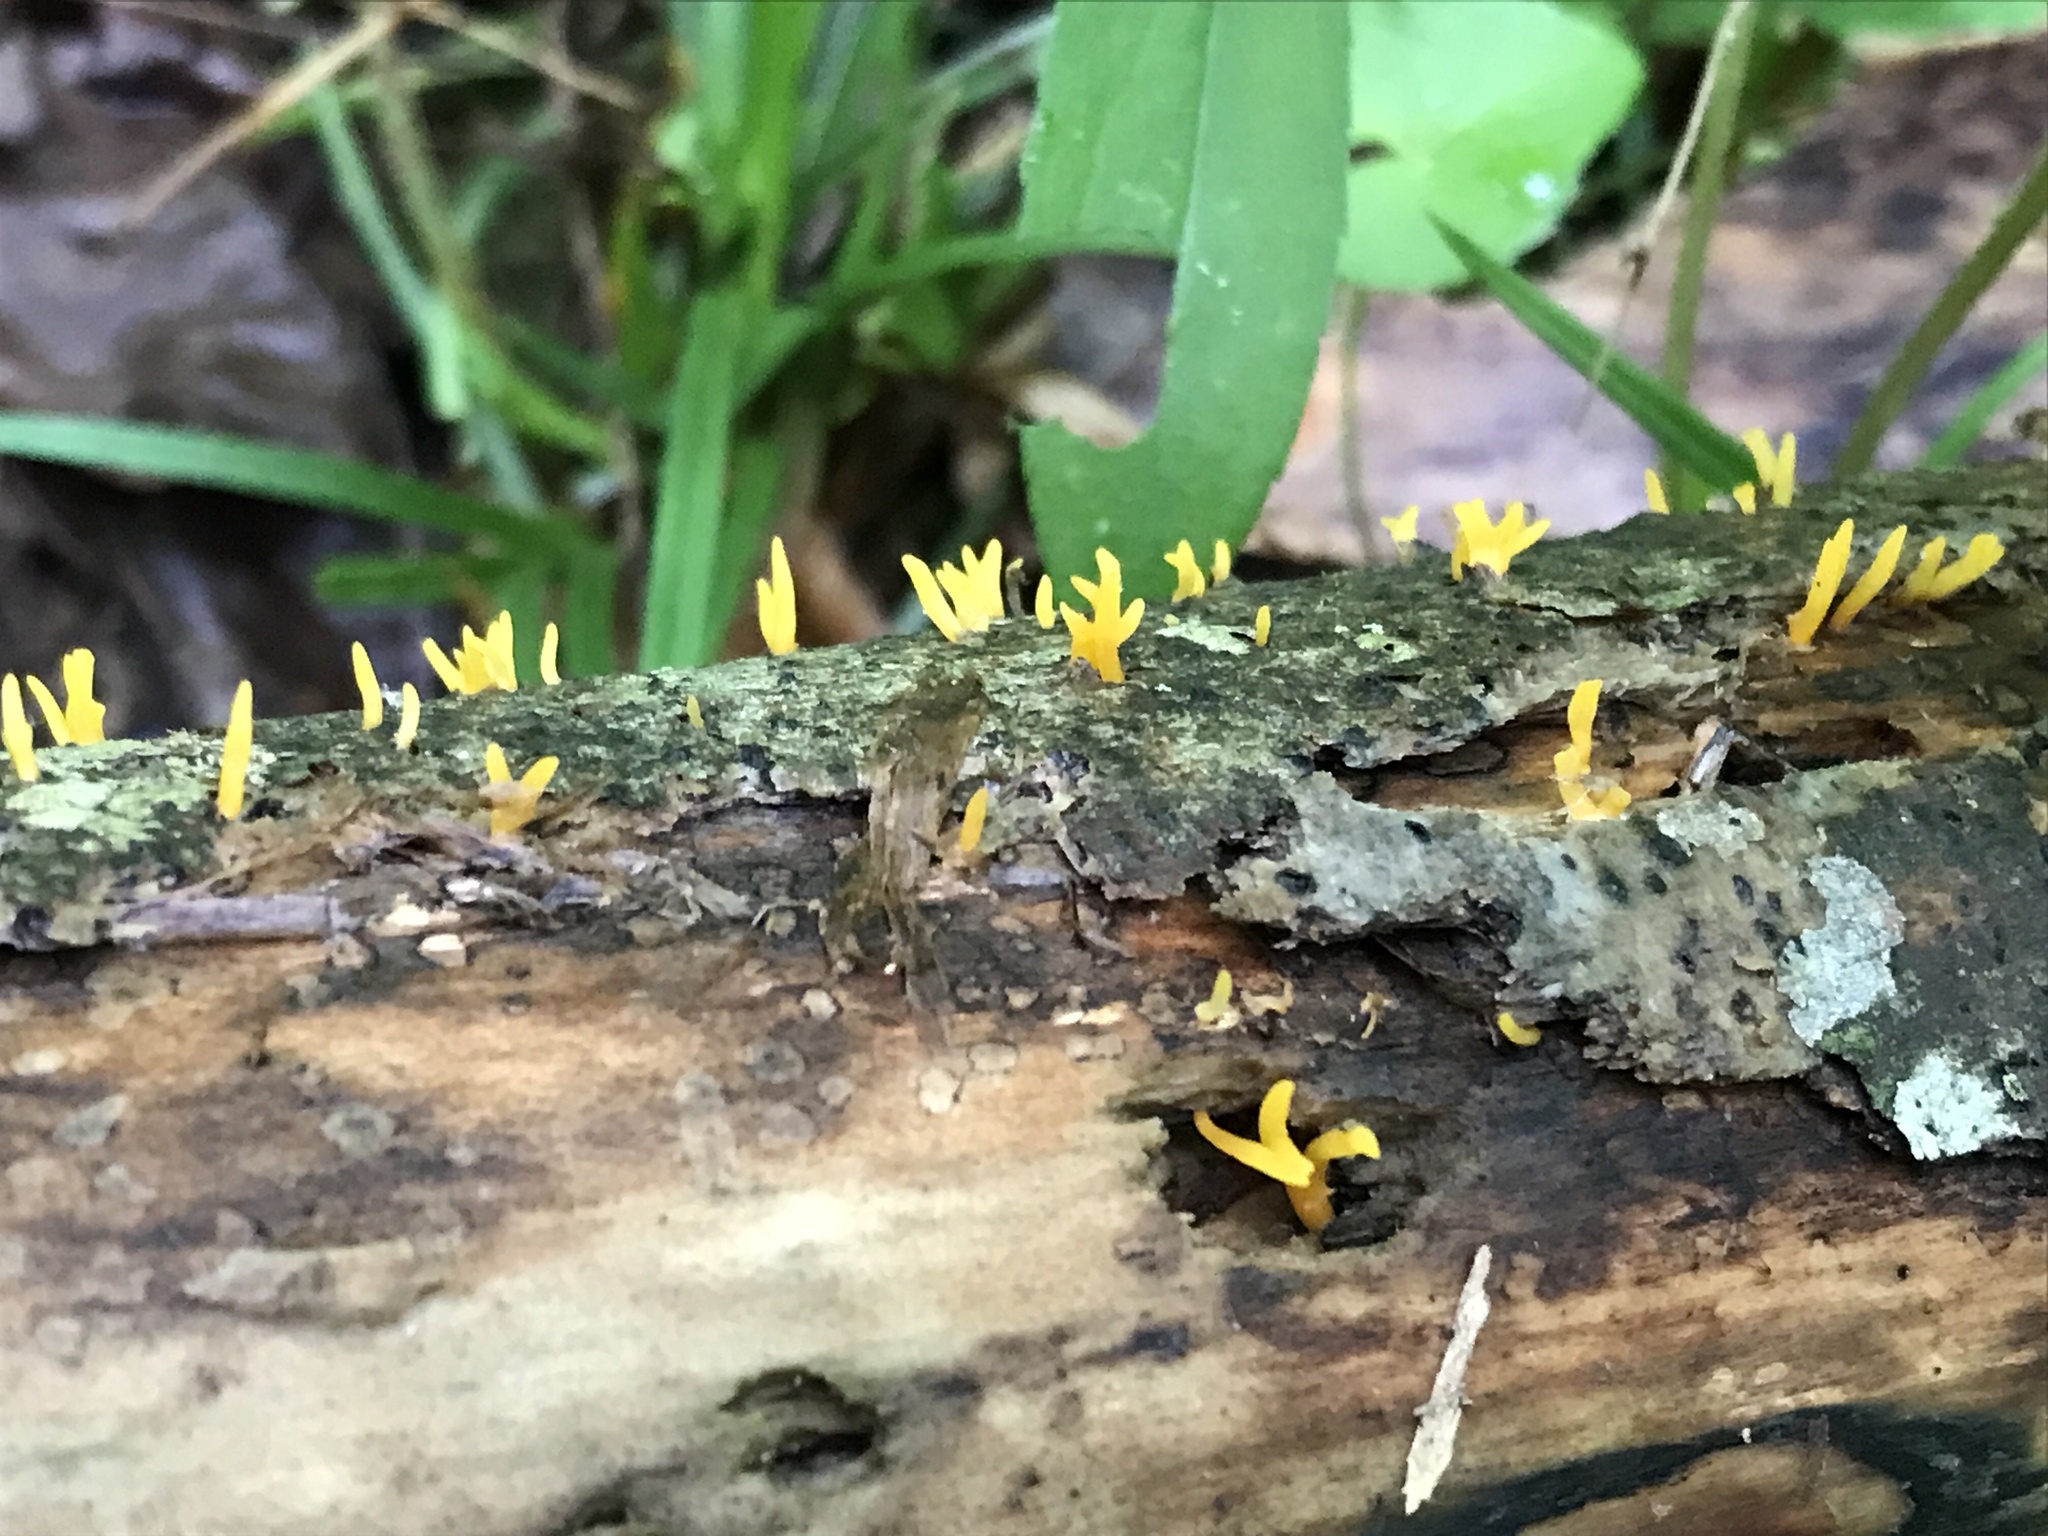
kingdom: Fungi
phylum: Basidiomycota
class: Dacrymycetes
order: Dacrymycetales
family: Dacrymycetaceae
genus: Calocera
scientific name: Calocera cornea
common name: Small stagshorn
